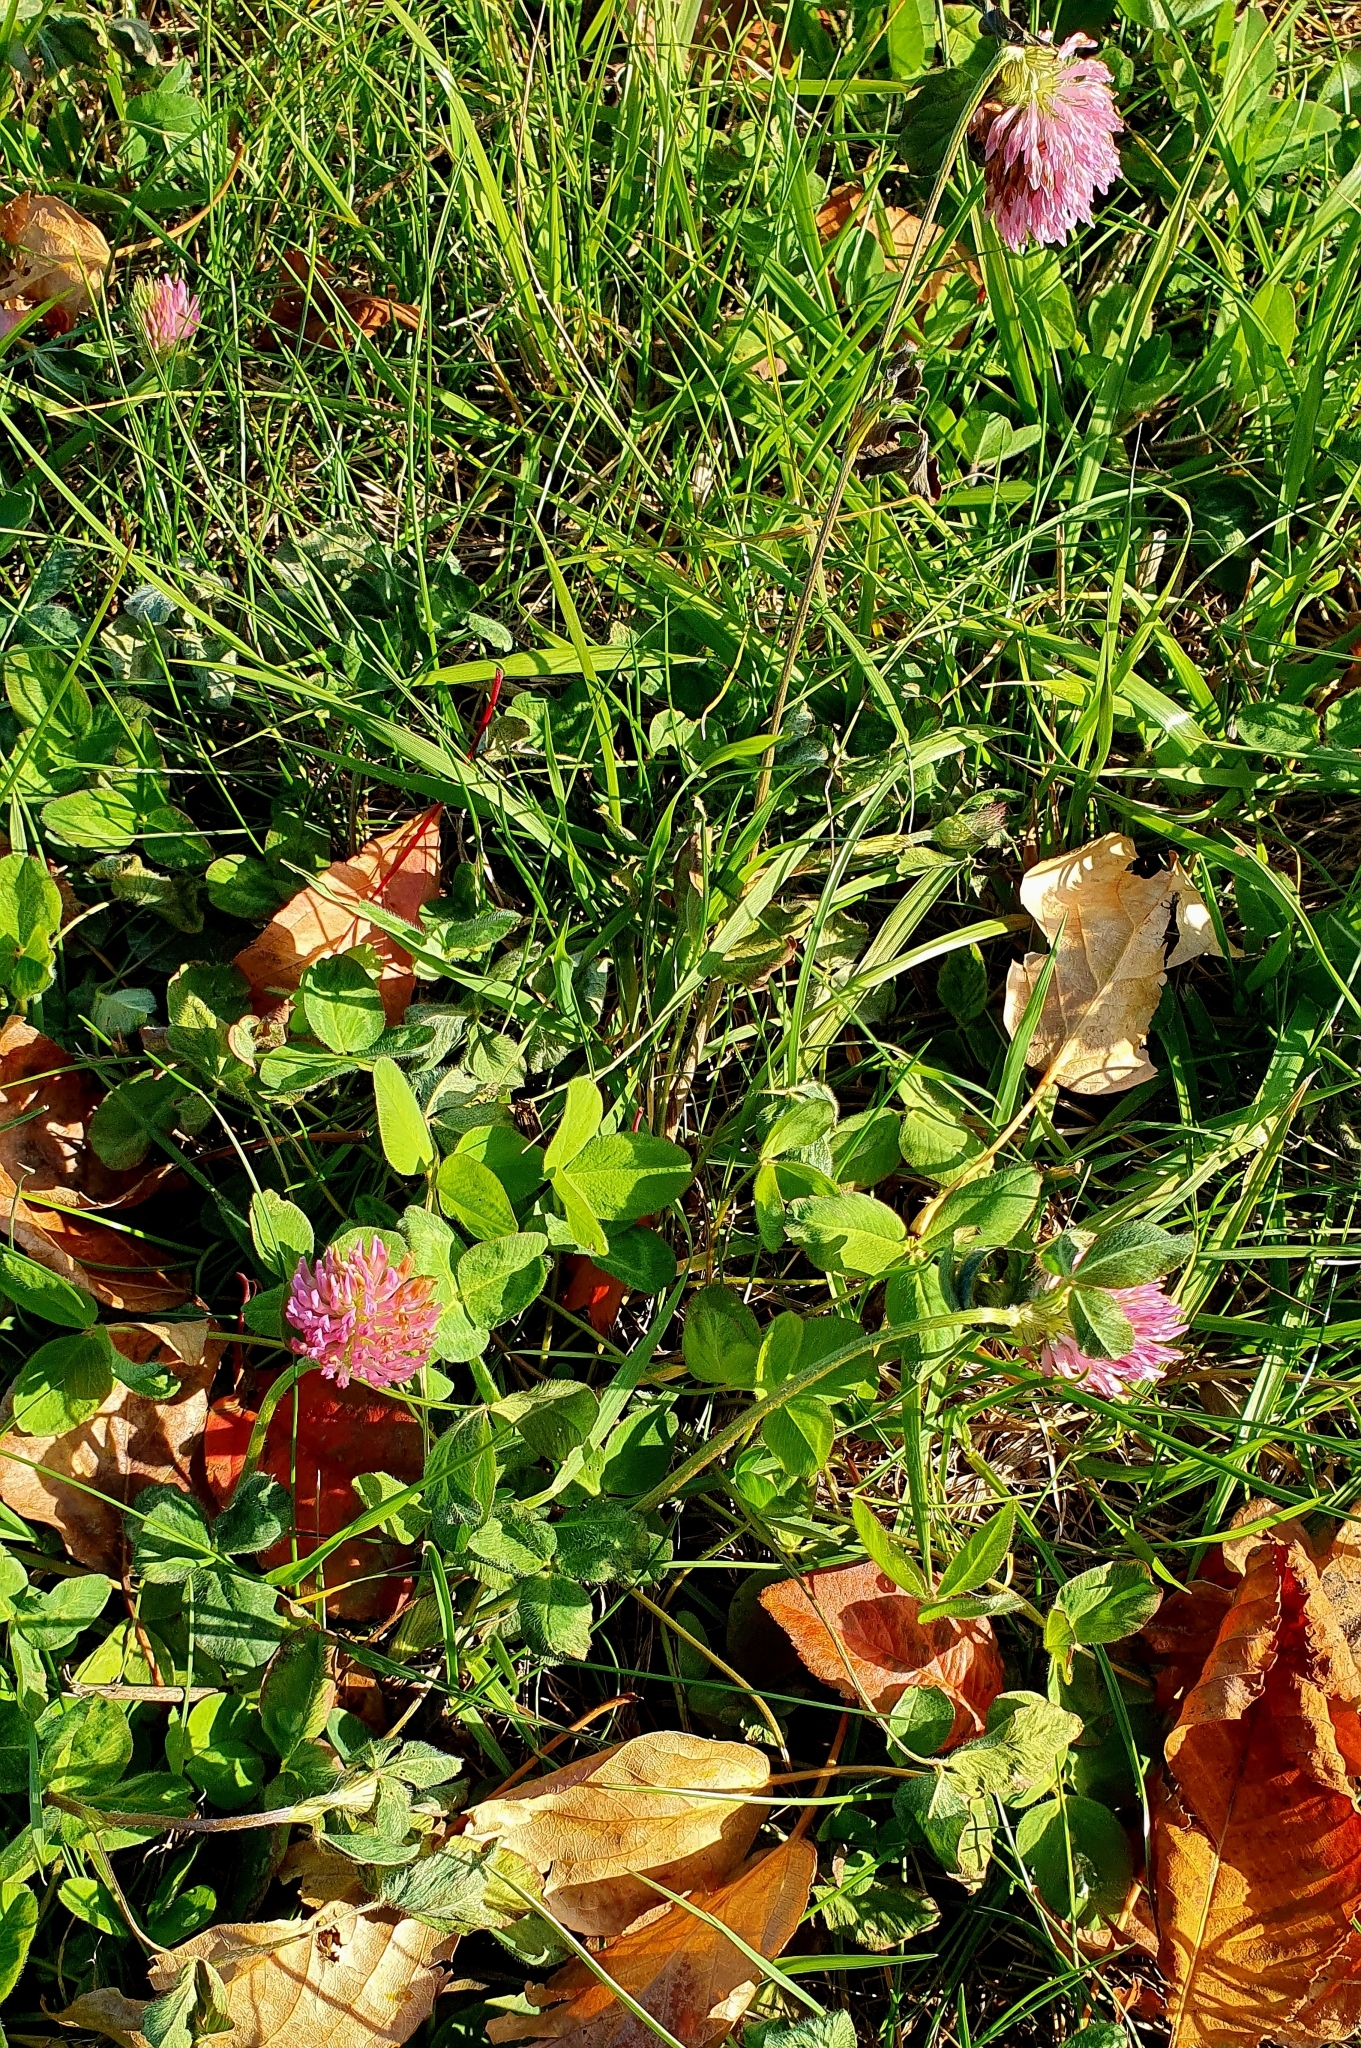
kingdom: Plantae
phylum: Tracheophyta
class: Magnoliopsida
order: Fabales
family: Fabaceae
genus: Trifolium
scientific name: Trifolium pratense
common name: Red clover
